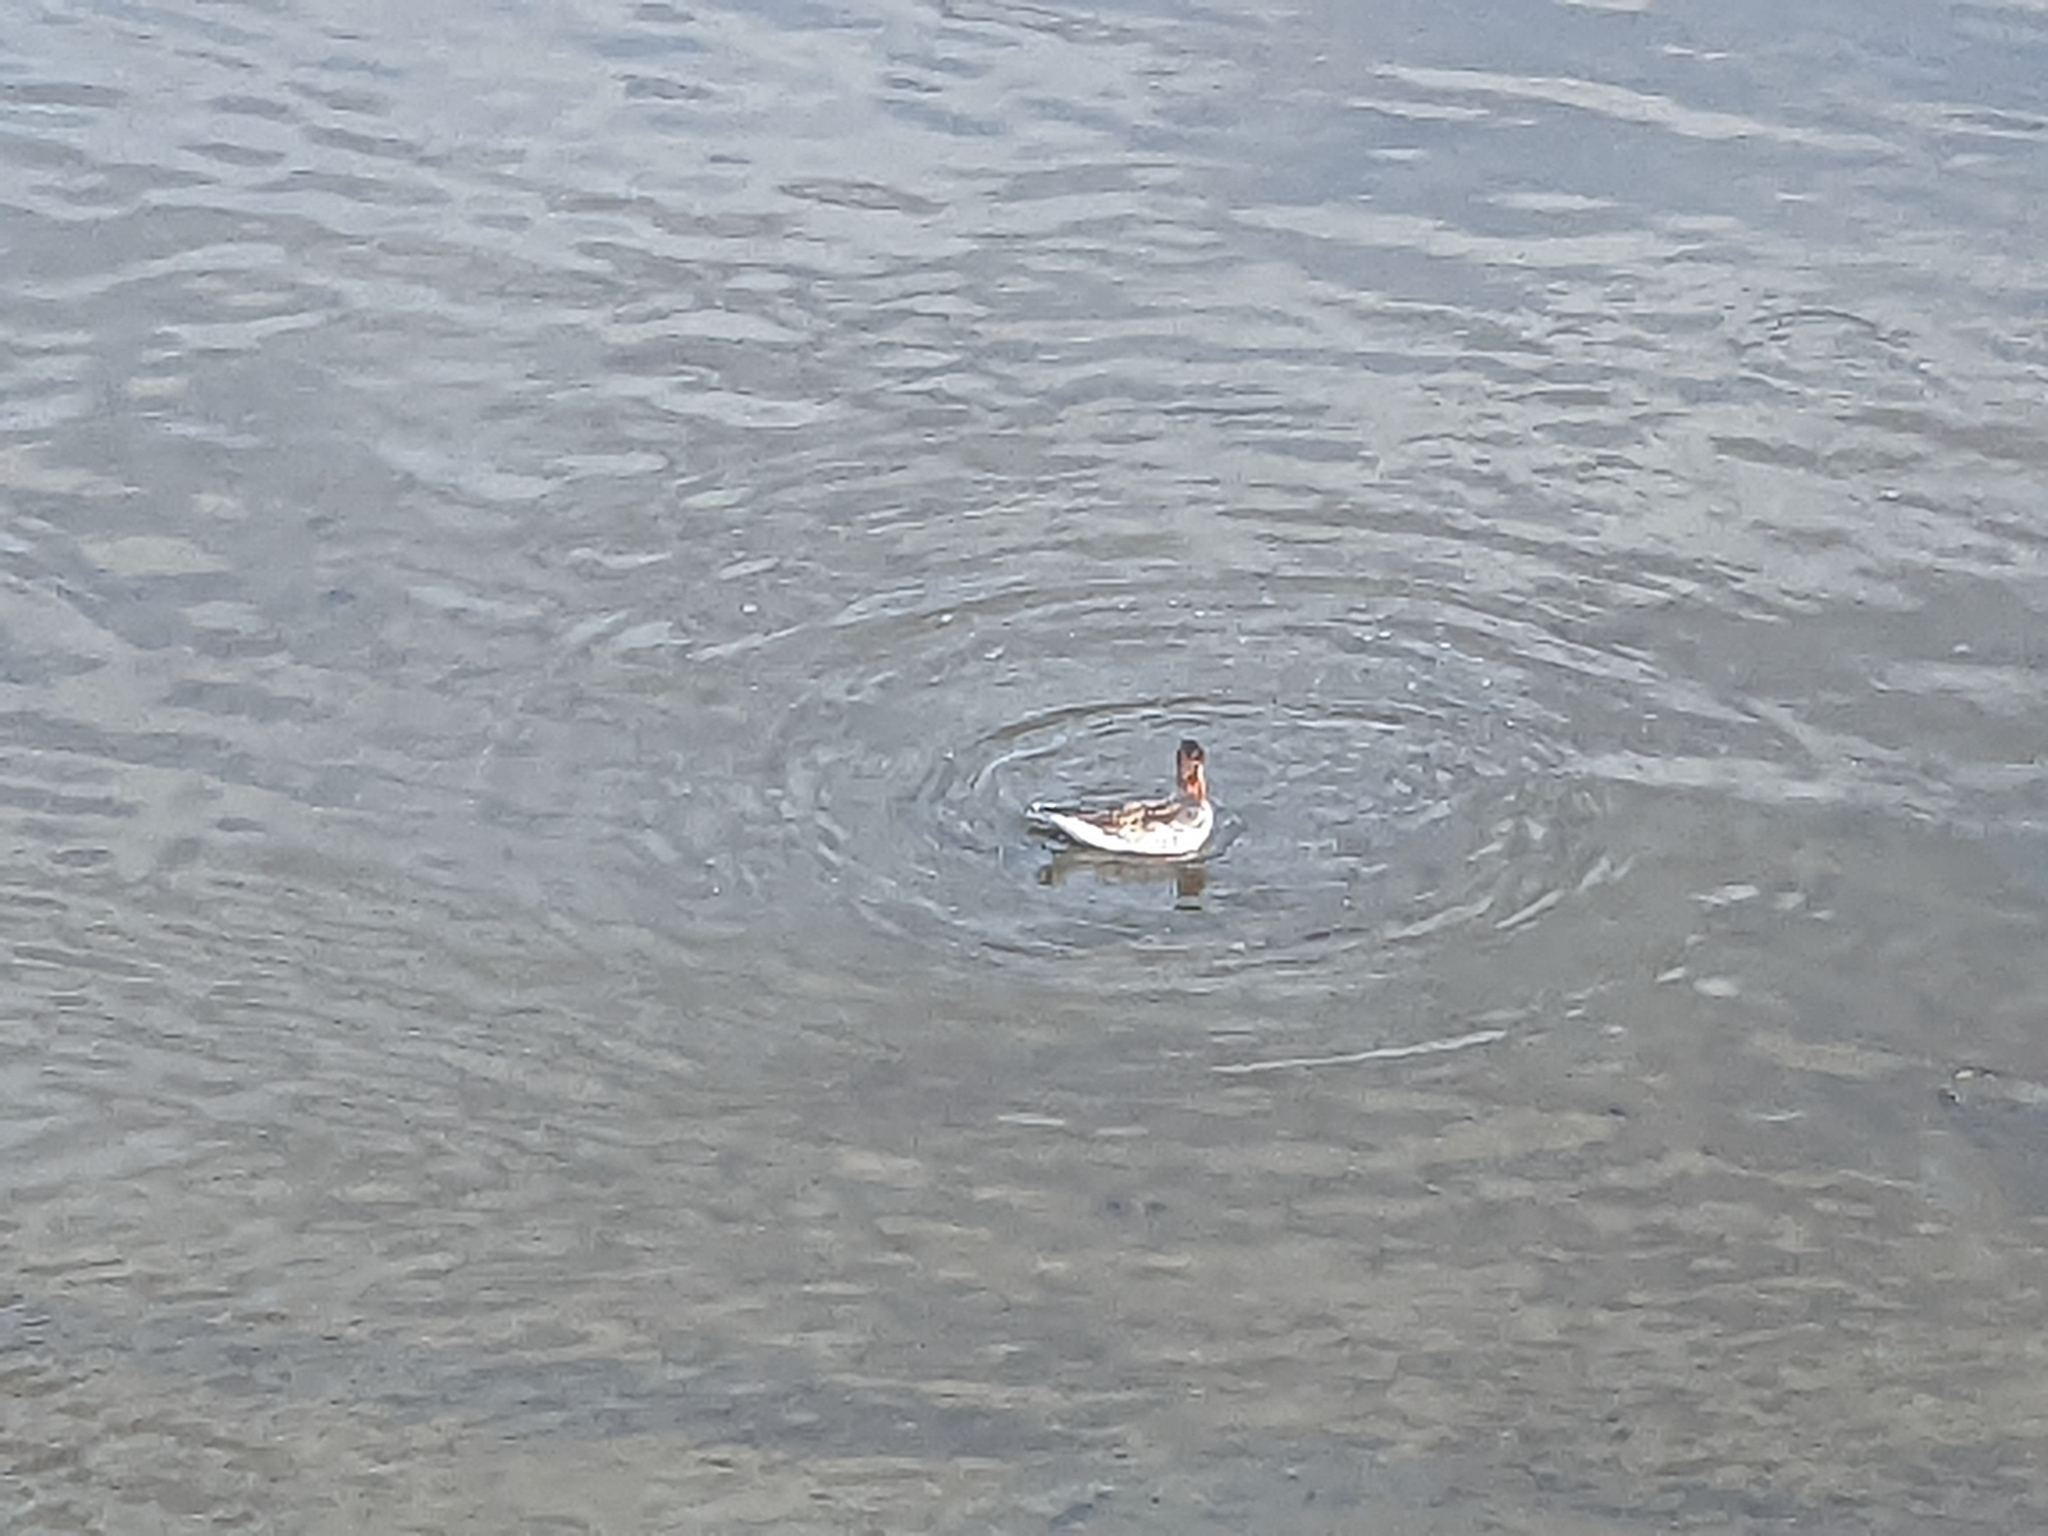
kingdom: Animalia
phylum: Chordata
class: Aves
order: Charadriiformes
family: Scolopacidae
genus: Phalaropus
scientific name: Phalaropus lobatus
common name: Red-necked phalarope
